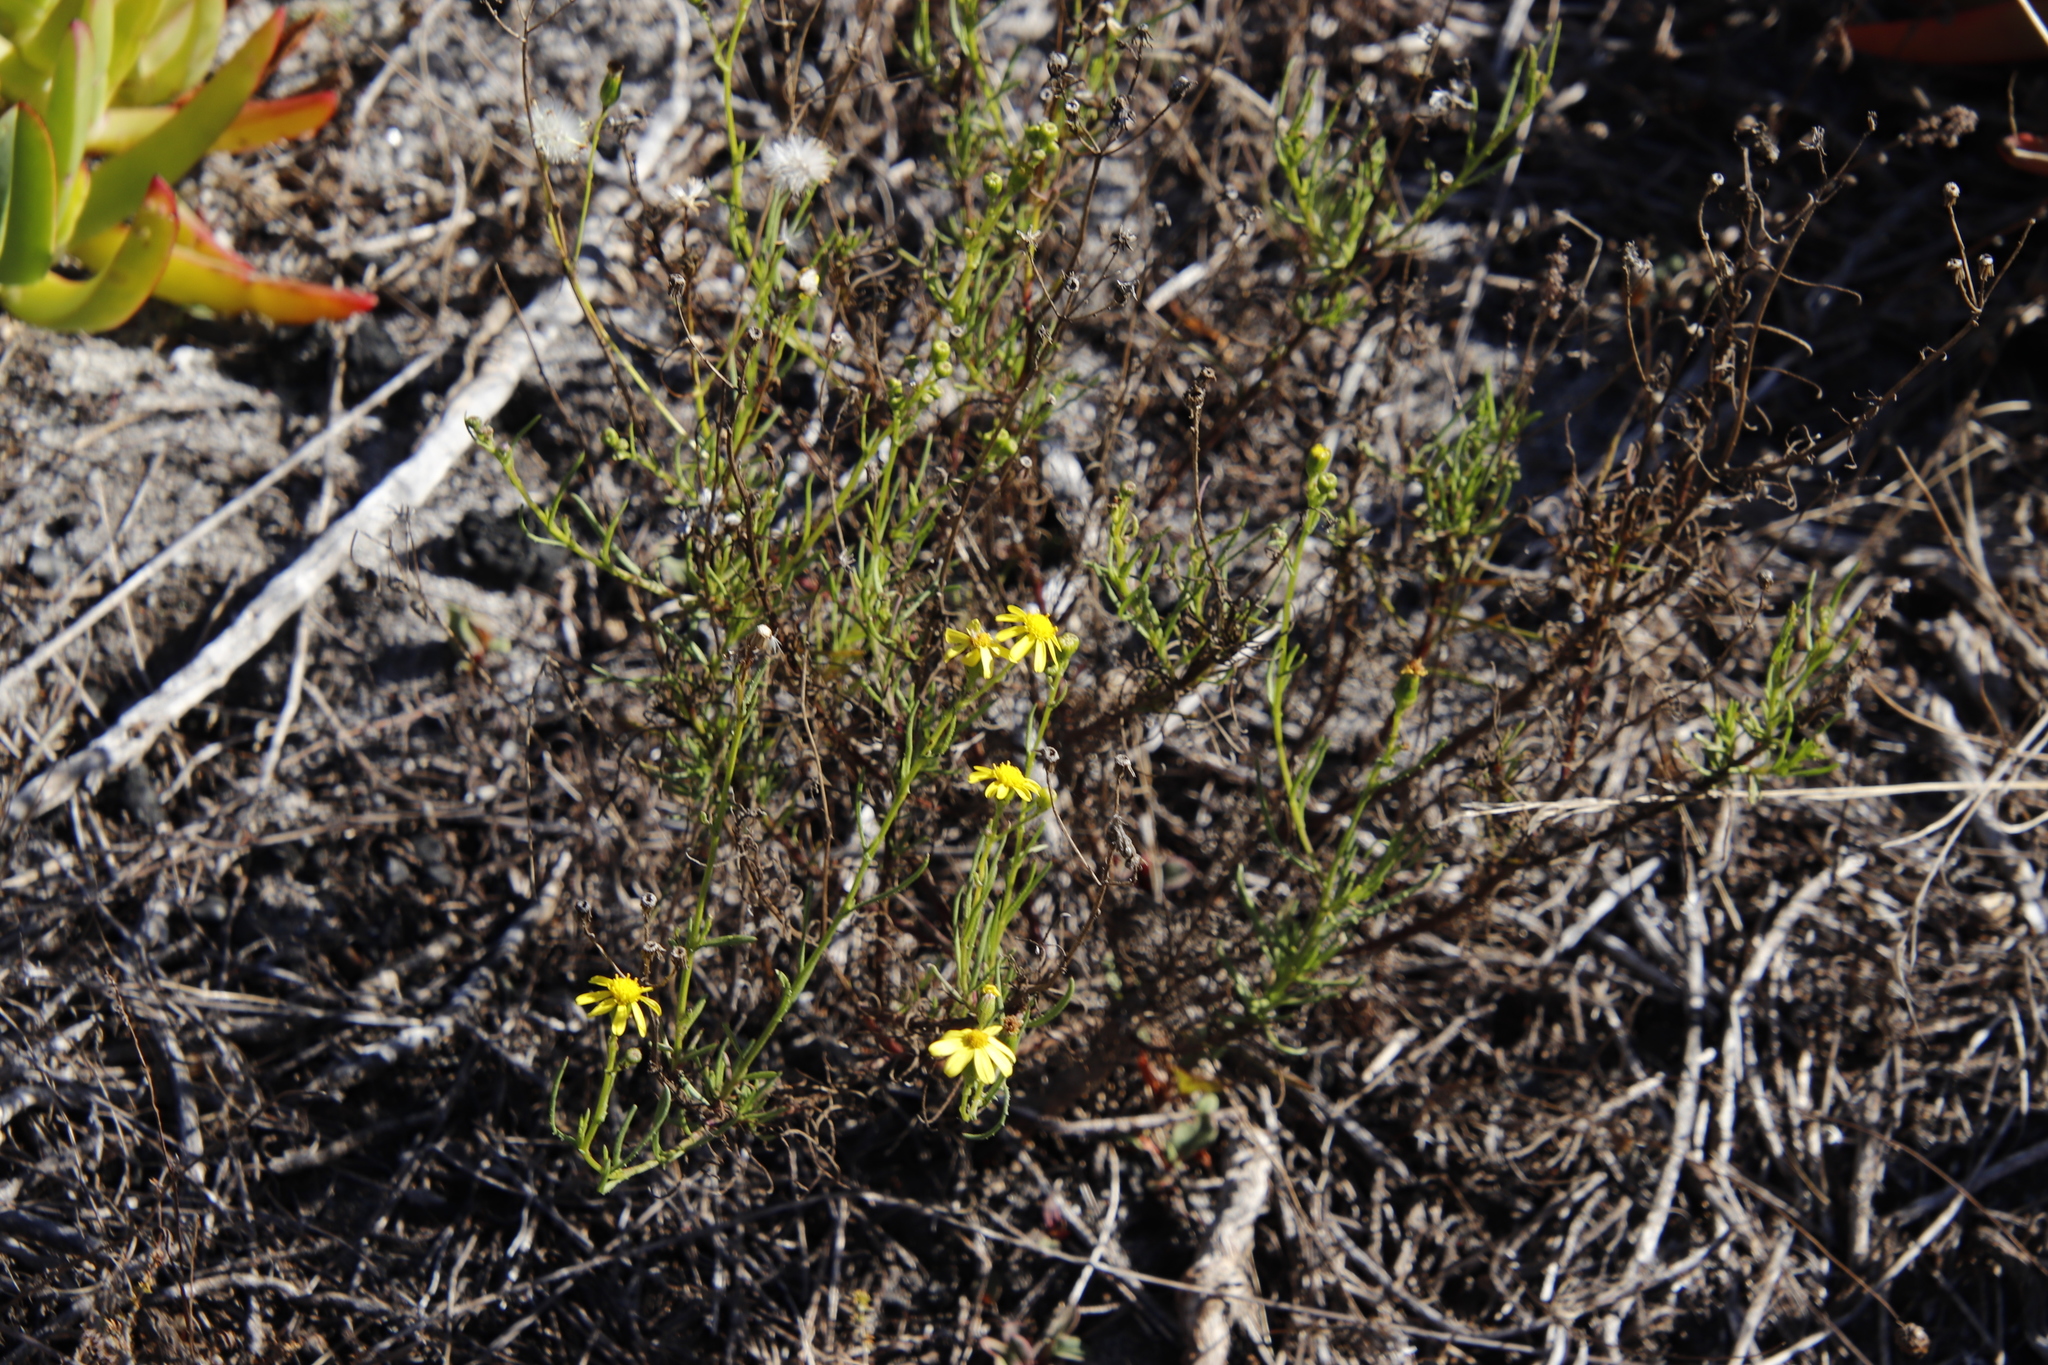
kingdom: Plantae
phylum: Tracheophyta
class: Magnoliopsida
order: Asterales
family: Asteraceae
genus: Senecio
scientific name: Senecio burchellii
